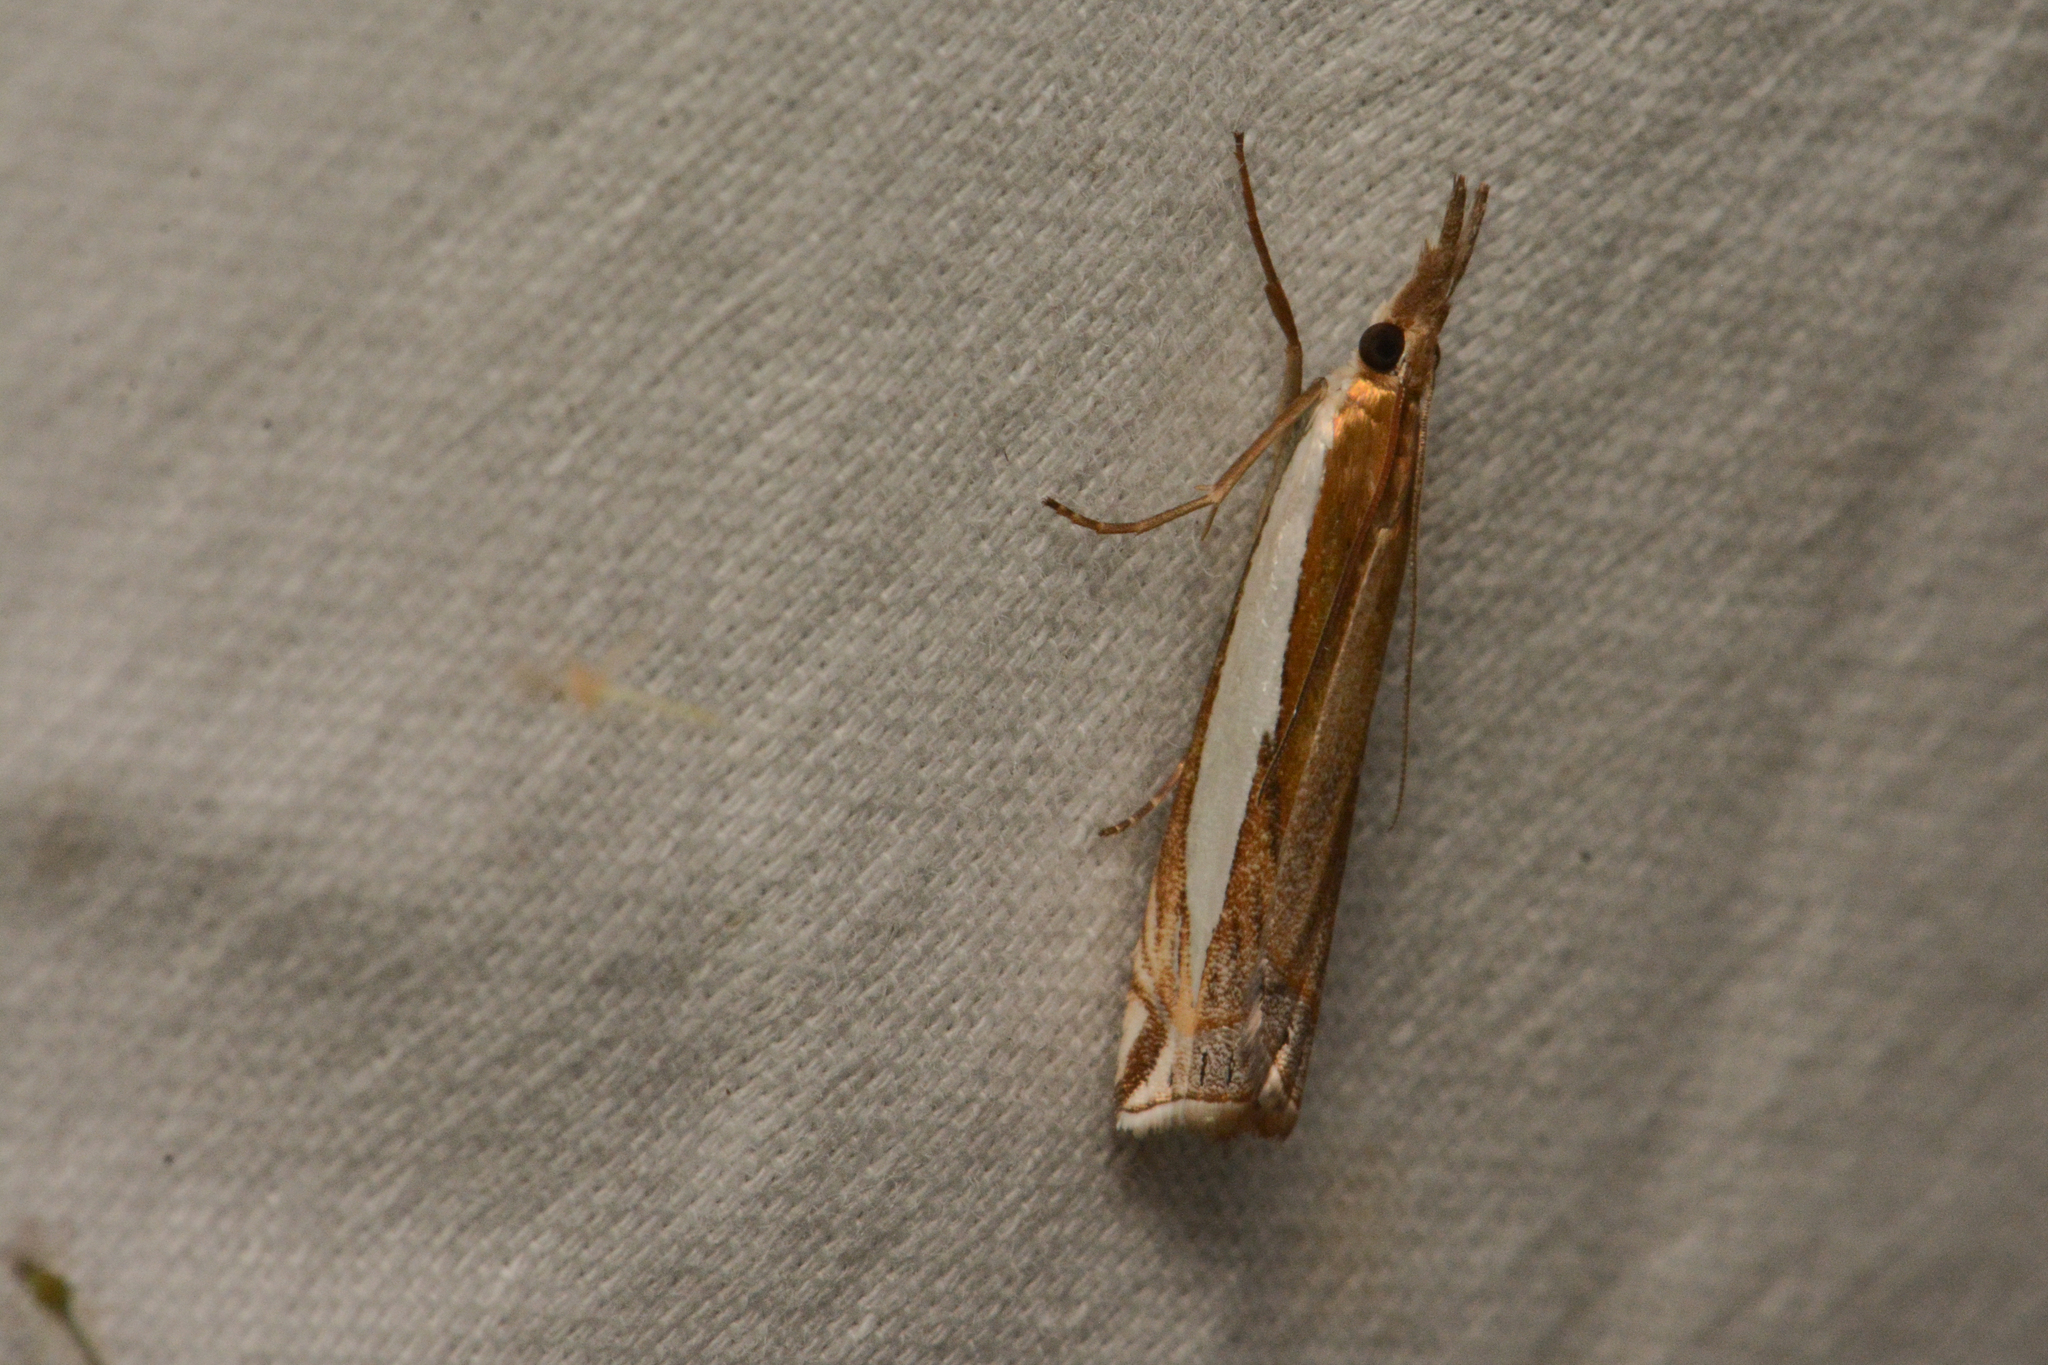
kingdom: Animalia
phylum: Arthropoda
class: Insecta
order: Lepidoptera
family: Crambidae
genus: Crambus
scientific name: Crambus leachellus
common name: Leach's grass-veneer
